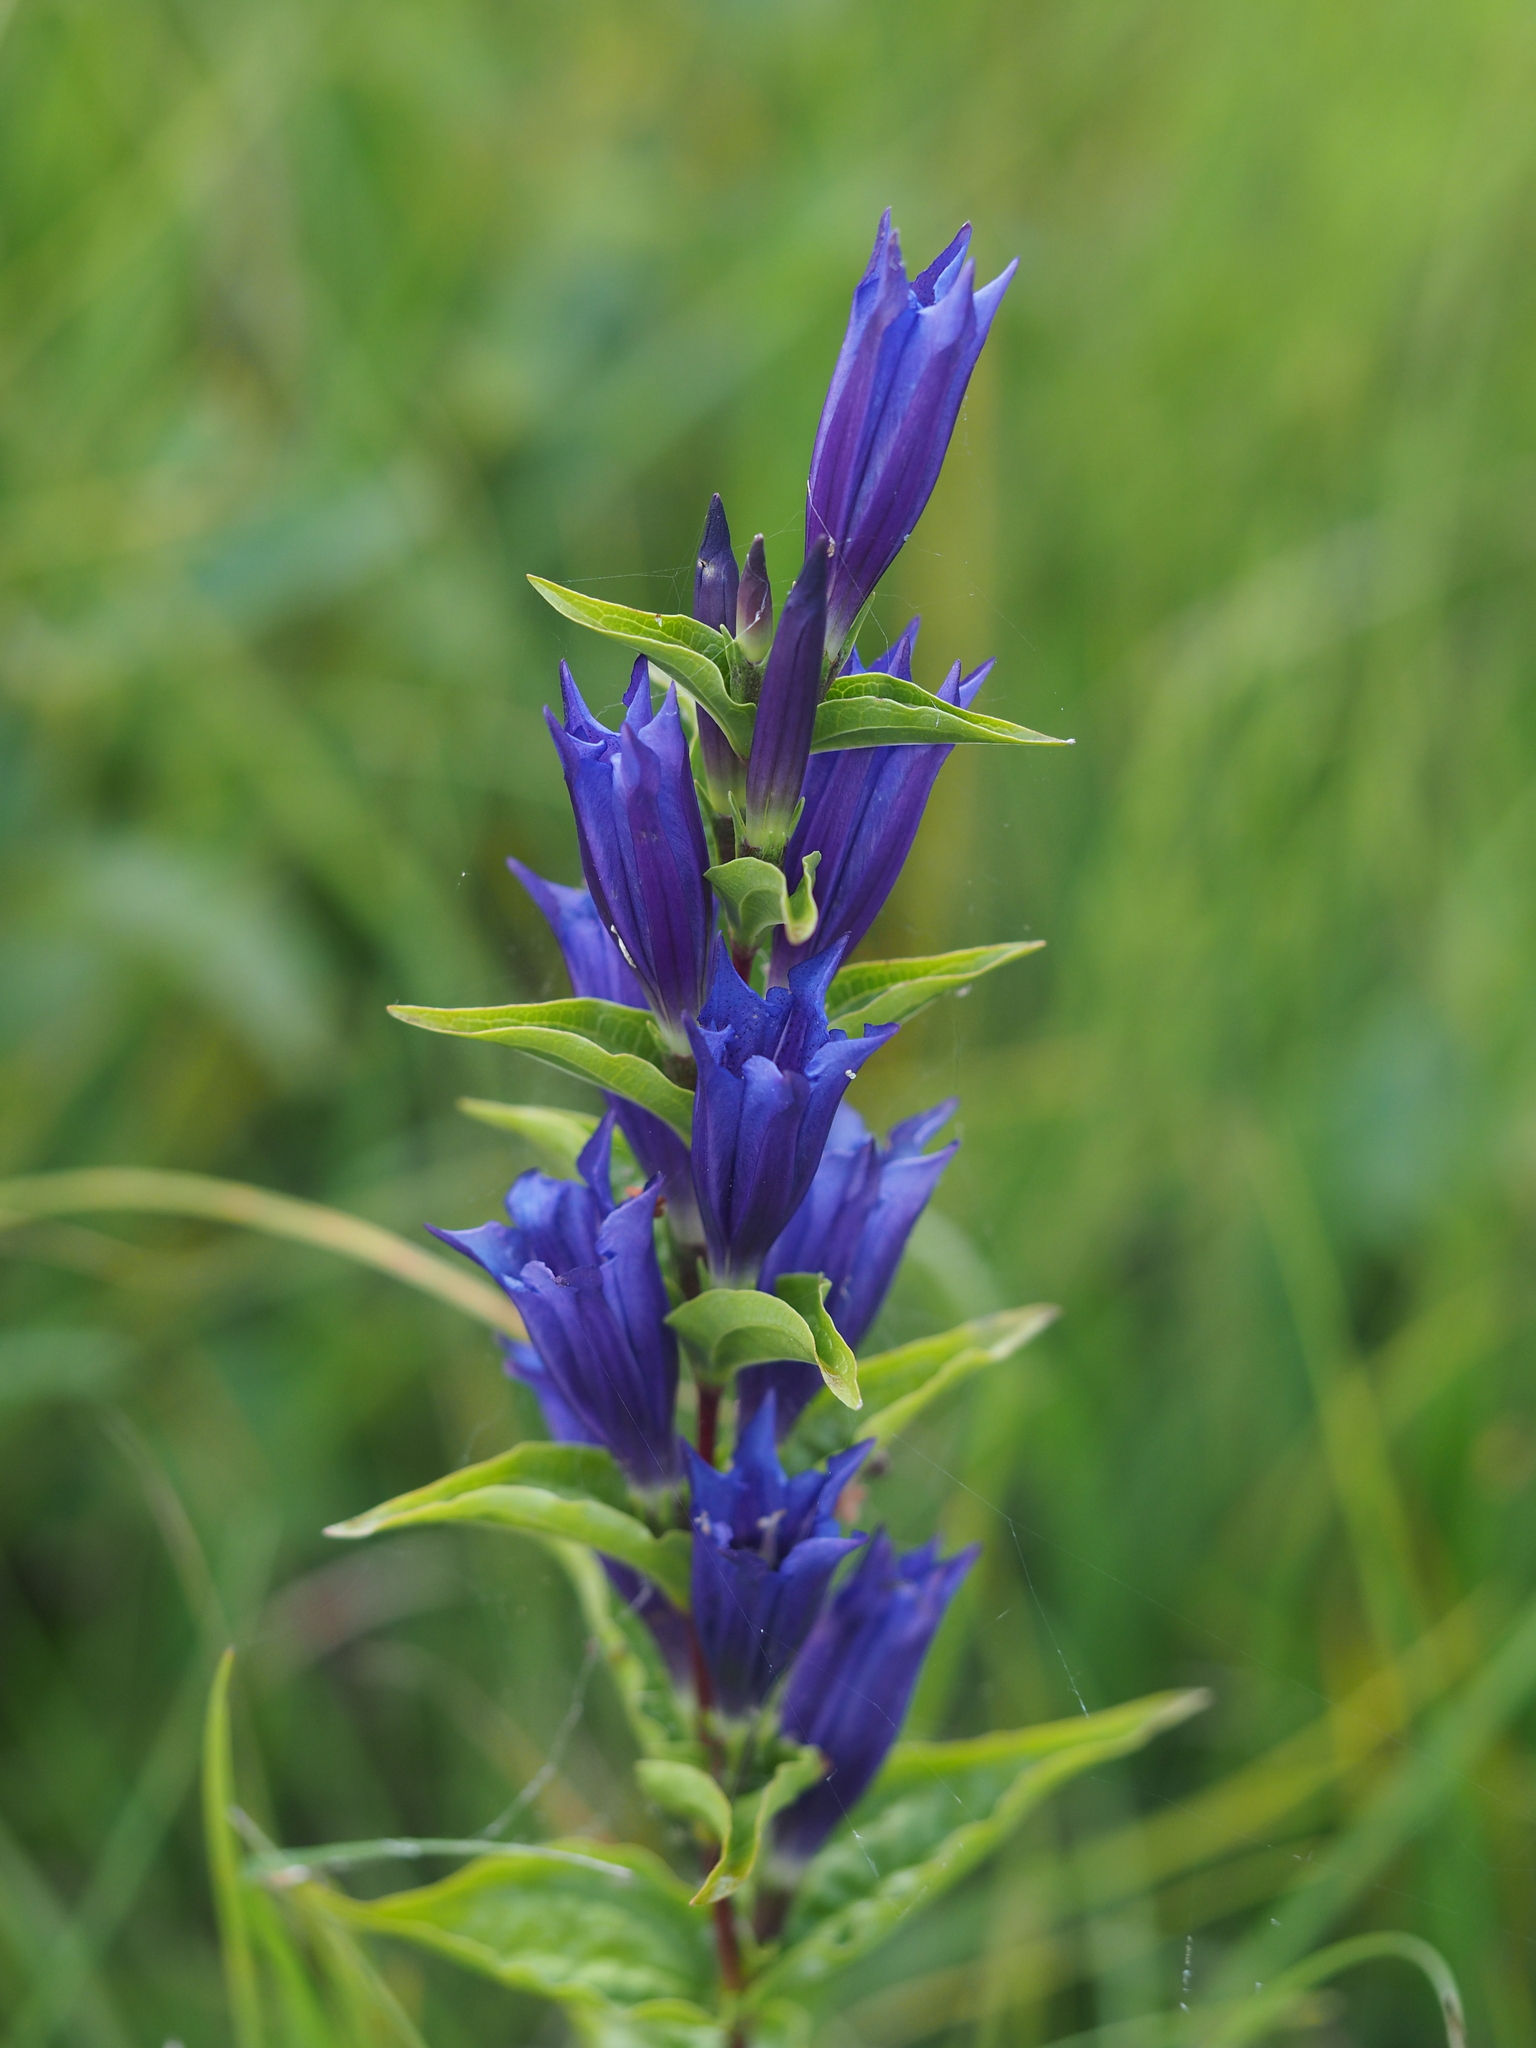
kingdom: Plantae
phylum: Tracheophyta
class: Magnoliopsida
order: Gentianales
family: Gentianaceae
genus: Gentiana
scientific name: Gentiana asclepiadea
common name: Willow gentian
